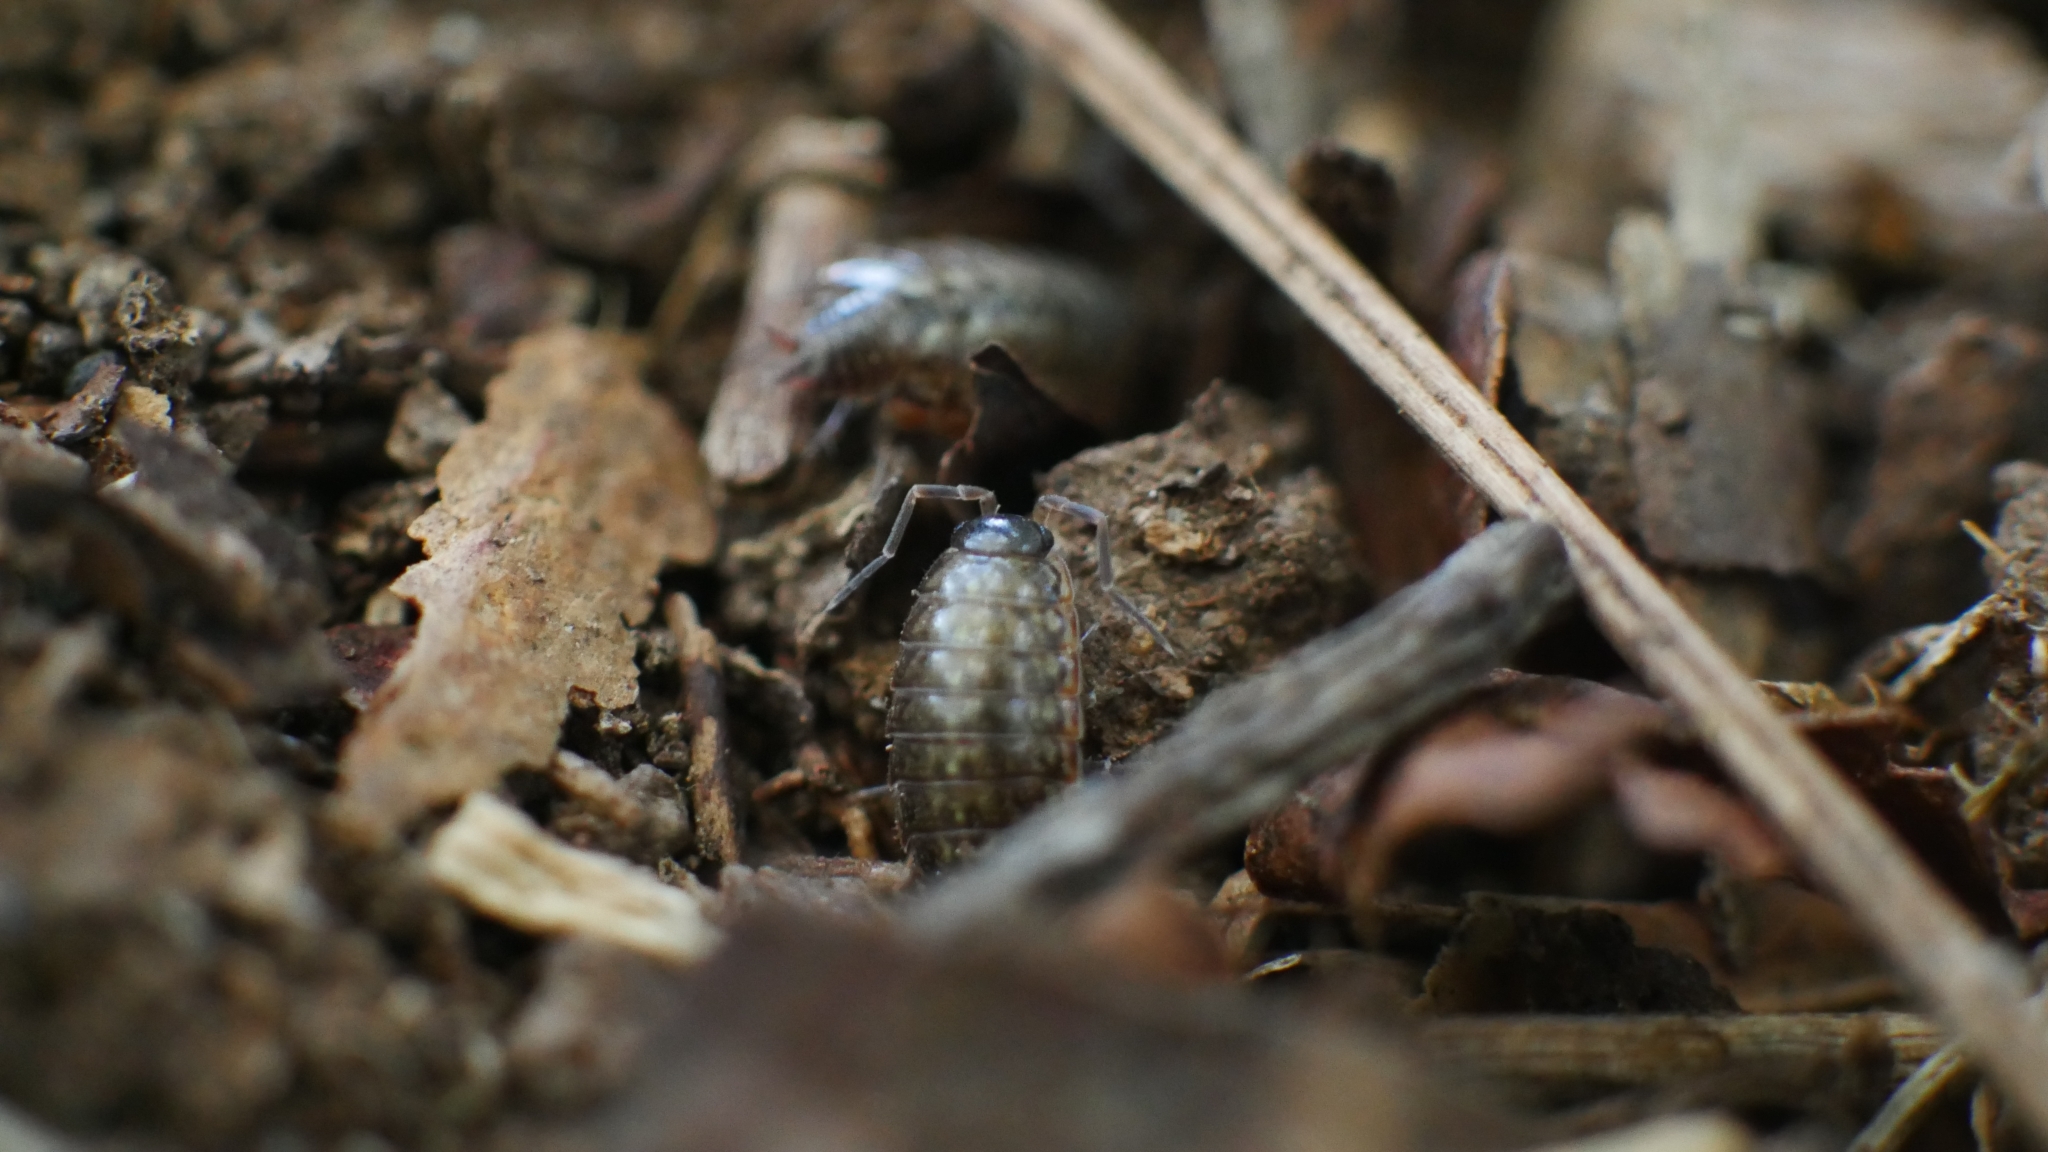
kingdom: Animalia
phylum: Arthropoda
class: Malacostraca
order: Isopoda
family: Philosciidae
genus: Philoscia
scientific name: Philoscia muscorum
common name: Common striped woodlouse
